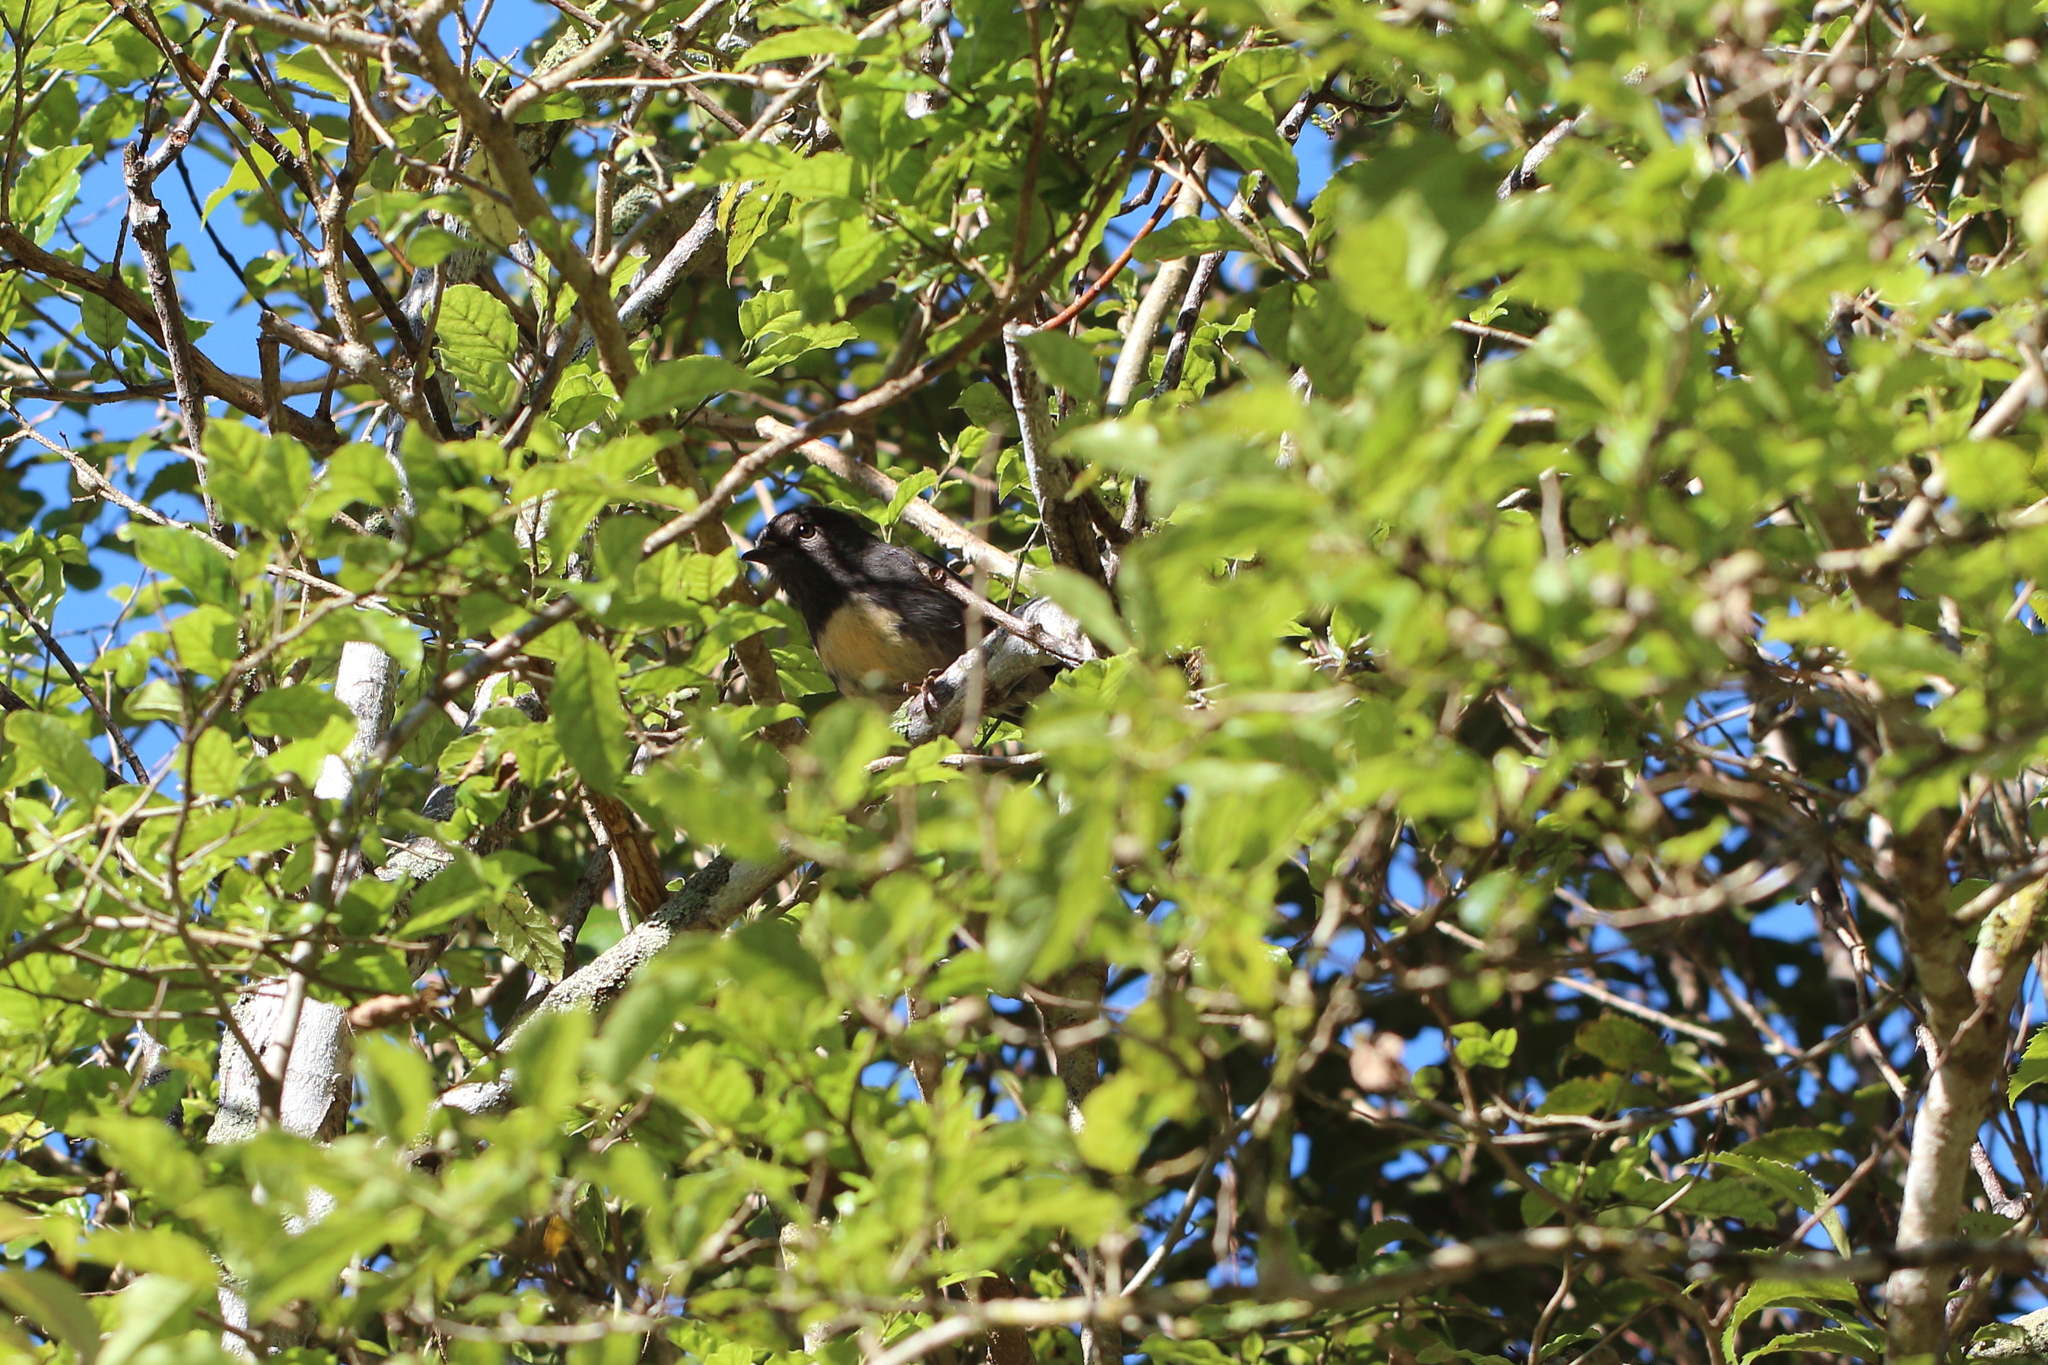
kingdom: Animalia
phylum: Chordata
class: Aves
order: Passeriformes
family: Petroicidae
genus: Petroica
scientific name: Petroica australis
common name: New zealand robin
